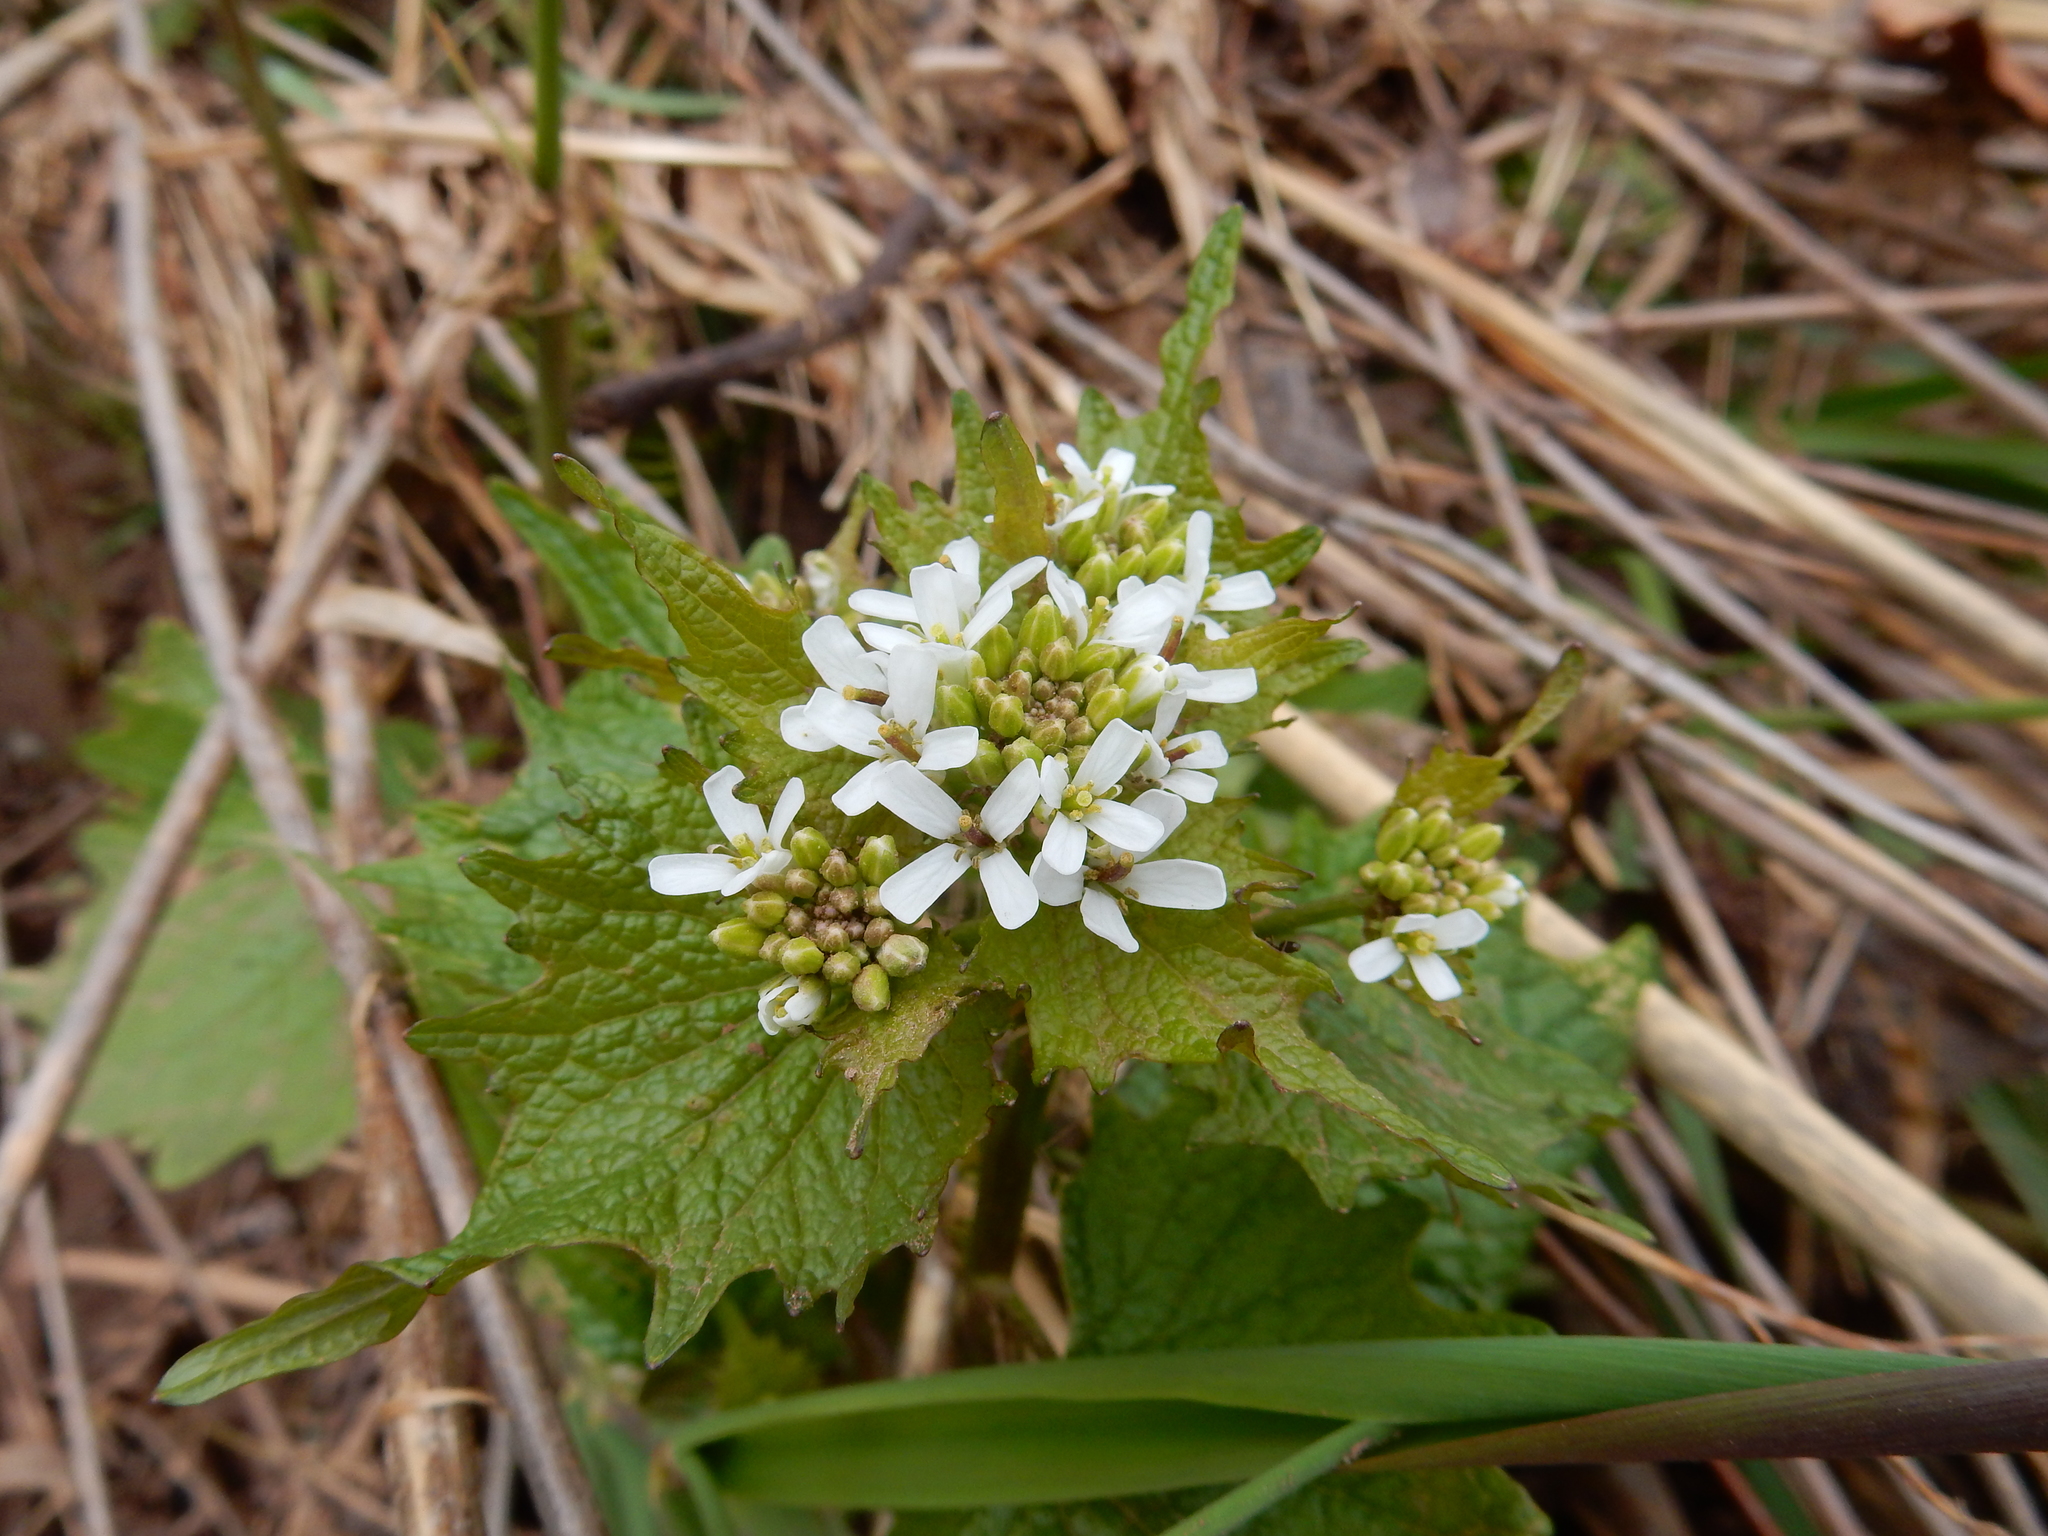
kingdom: Plantae
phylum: Tracheophyta
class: Magnoliopsida
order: Brassicales
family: Brassicaceae
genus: Alliaria
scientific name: Alliaria petiolata
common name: Garlic mustard
